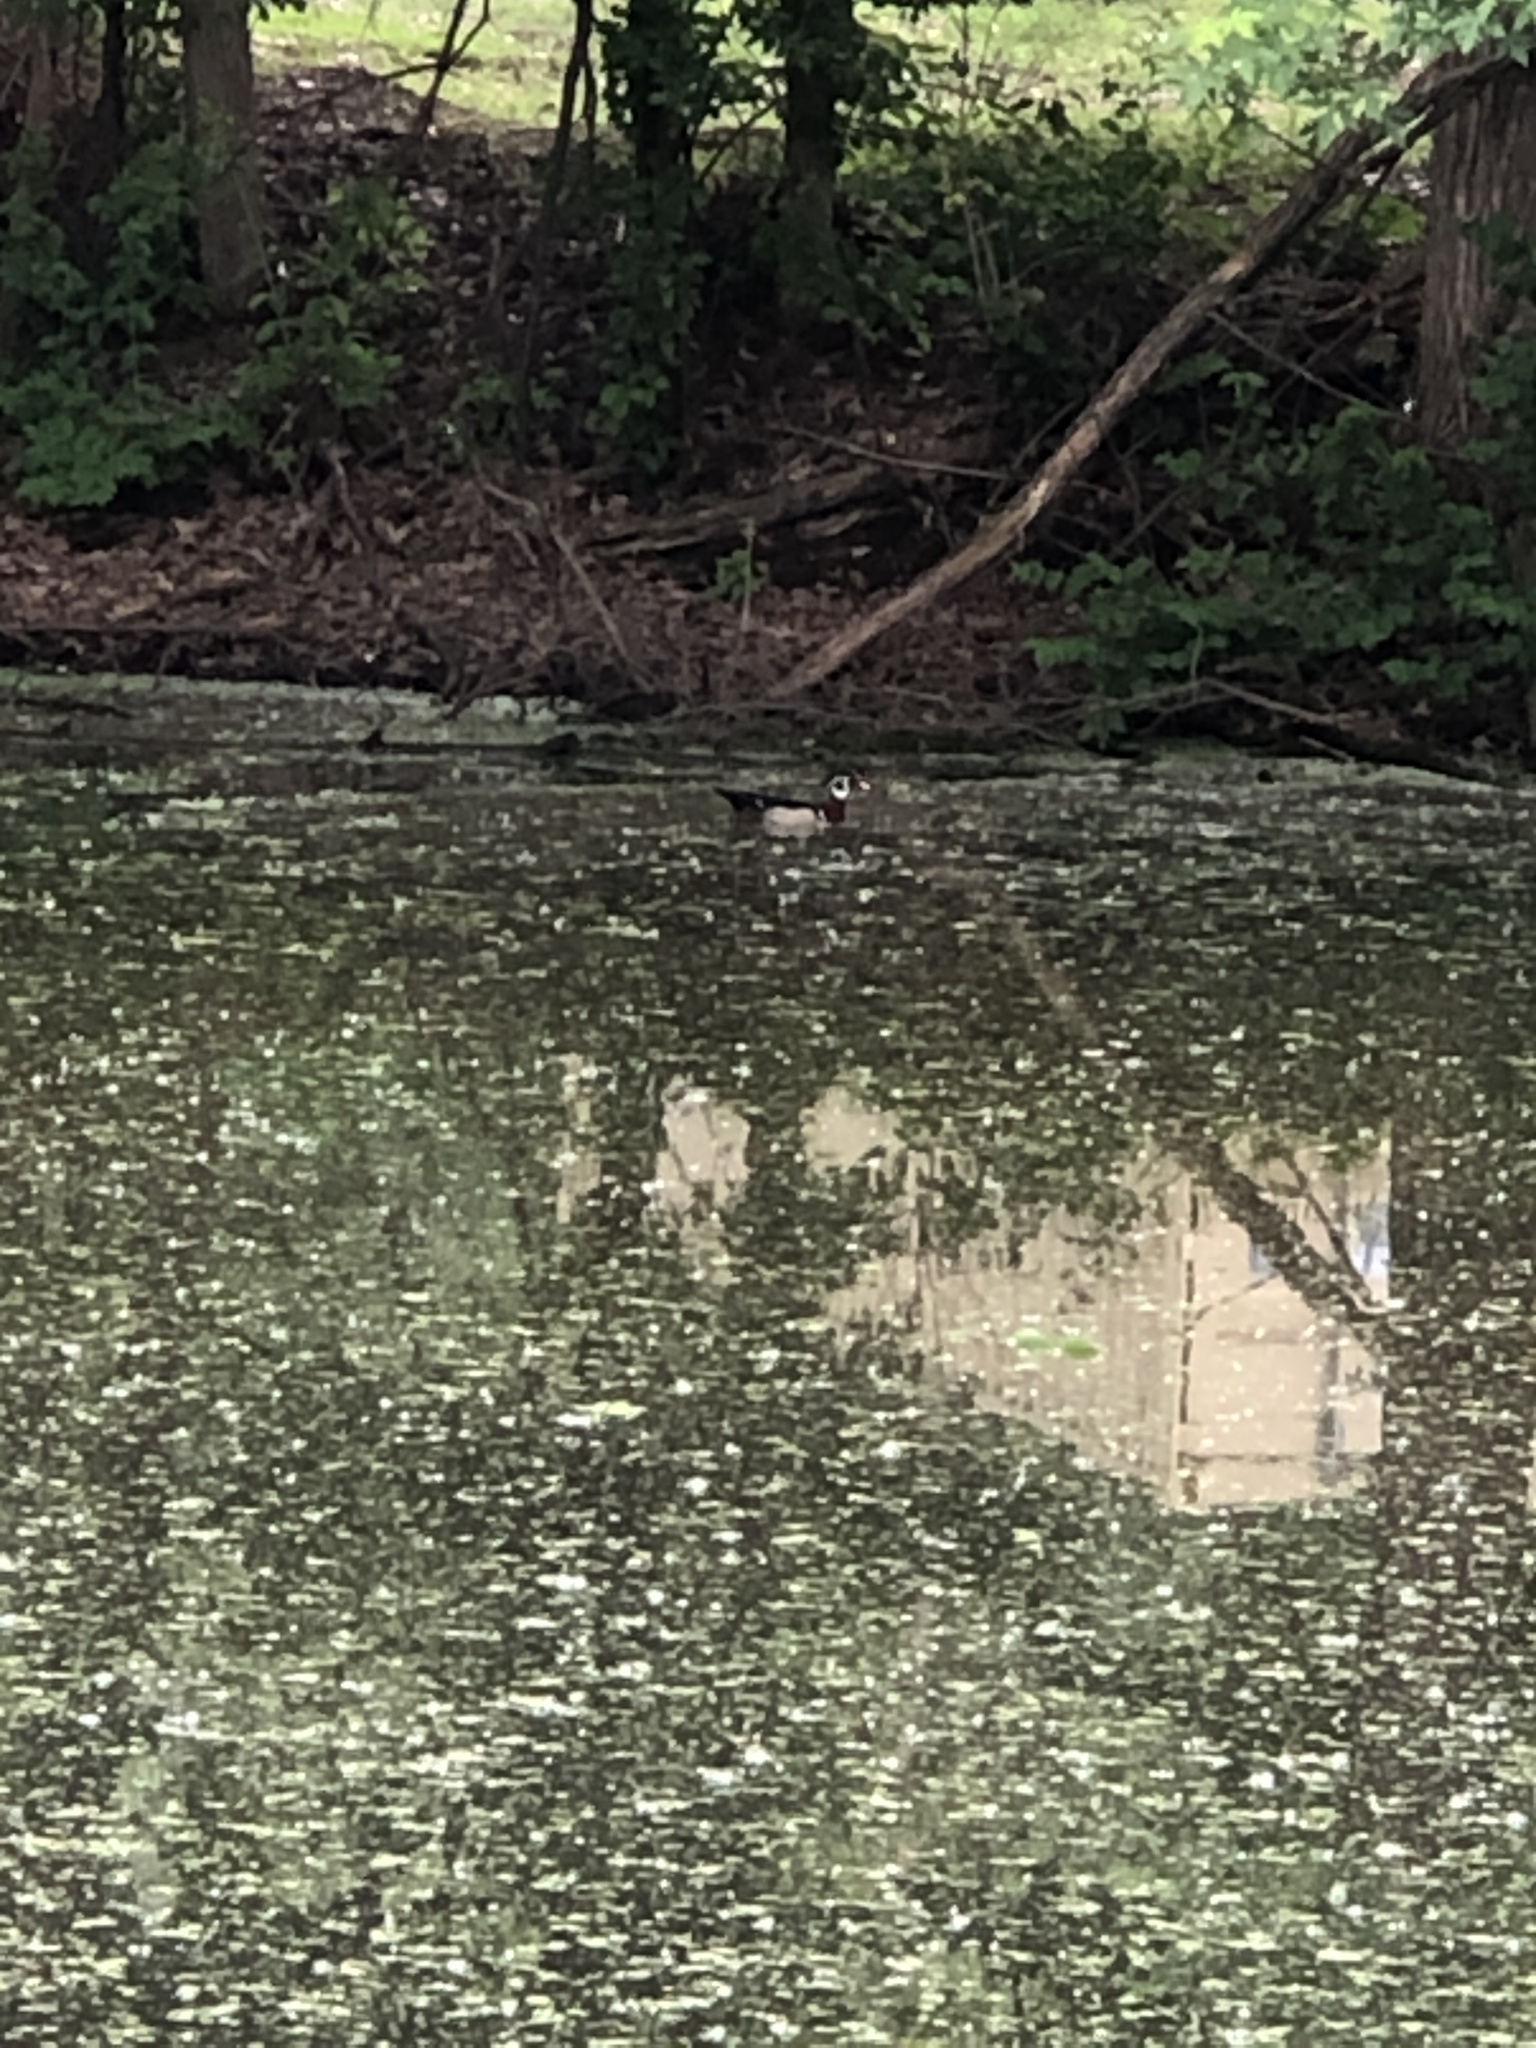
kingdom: Animalia
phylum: Chordata
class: Aves
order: Anseriformes
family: Anatidae
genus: Aix
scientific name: Aix sponsa
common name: Wood duck
